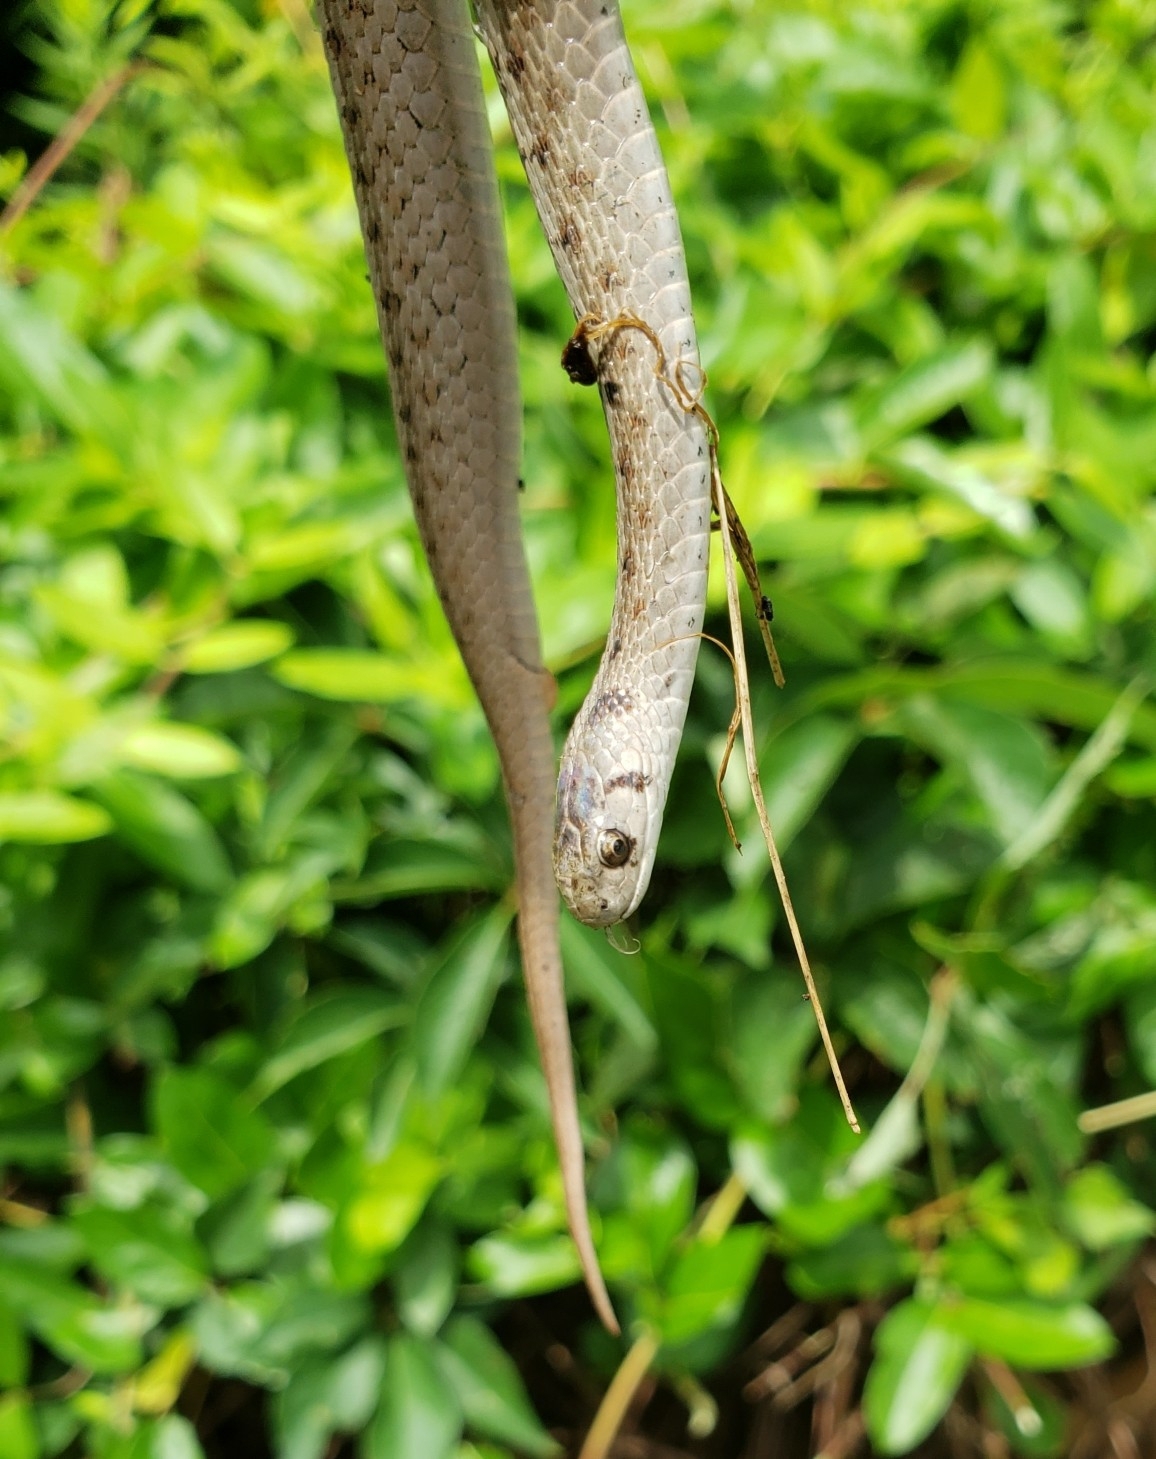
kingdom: Animalia
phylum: Chordata
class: Squamata
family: Colubridae
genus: Storeria
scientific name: Storeria dekayi
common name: (dekay’s) brown snake
